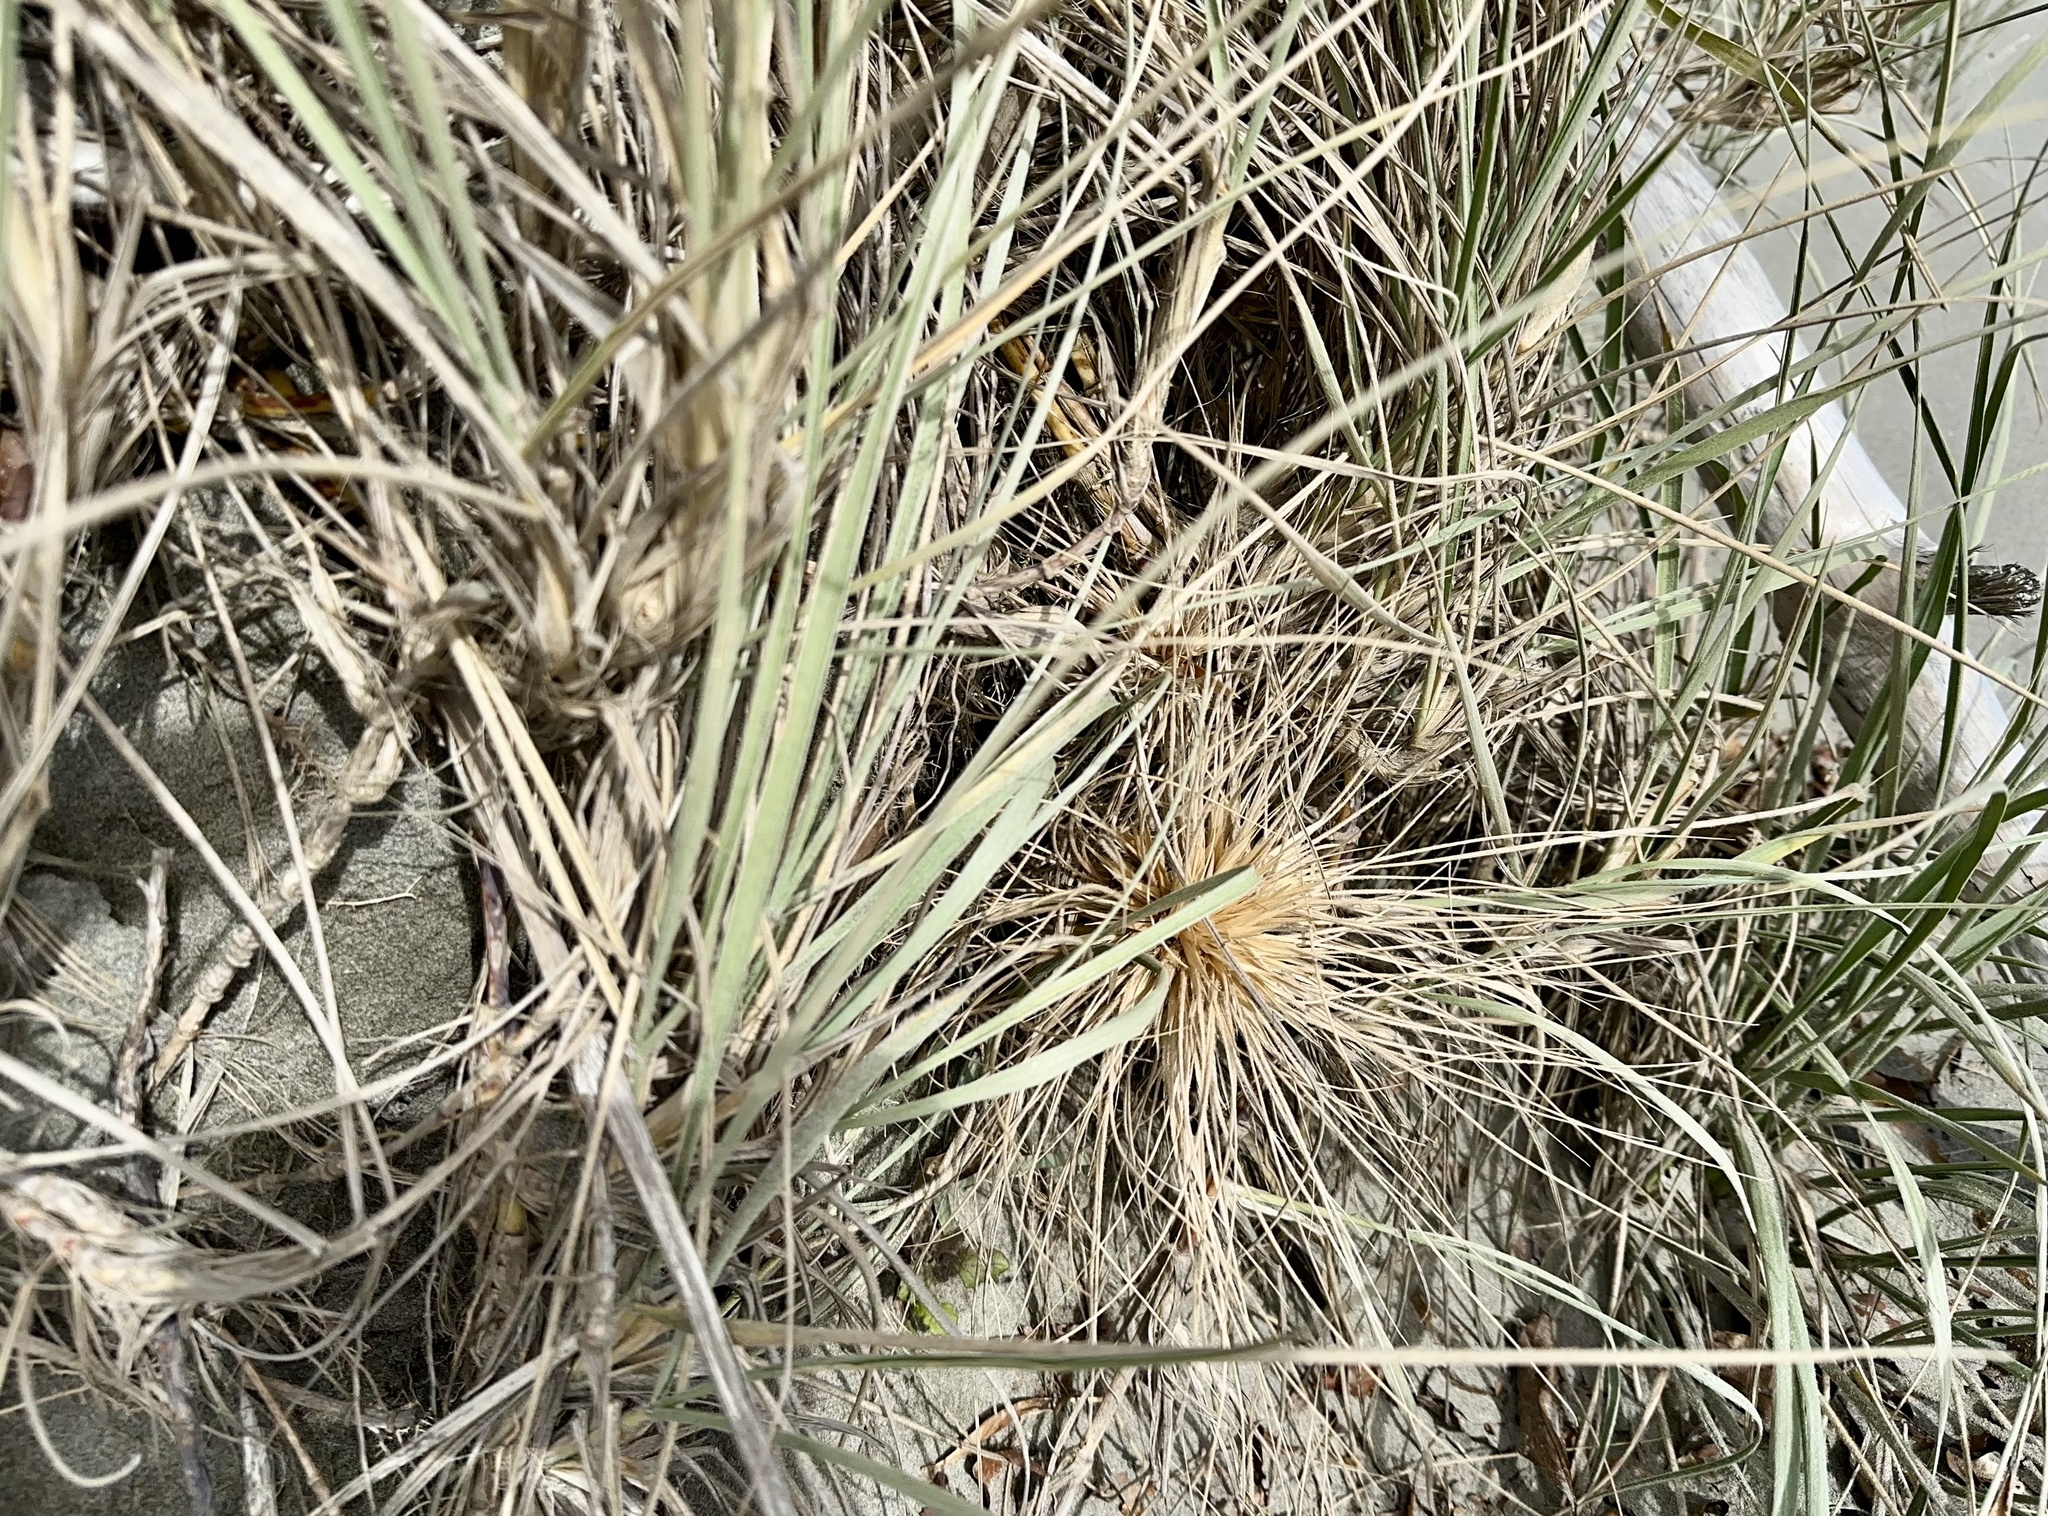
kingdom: Plantae
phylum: Tracheophyta
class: Liliopsida
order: Poales
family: Poaceae
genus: Spinifex
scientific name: Spinifex sericeus
